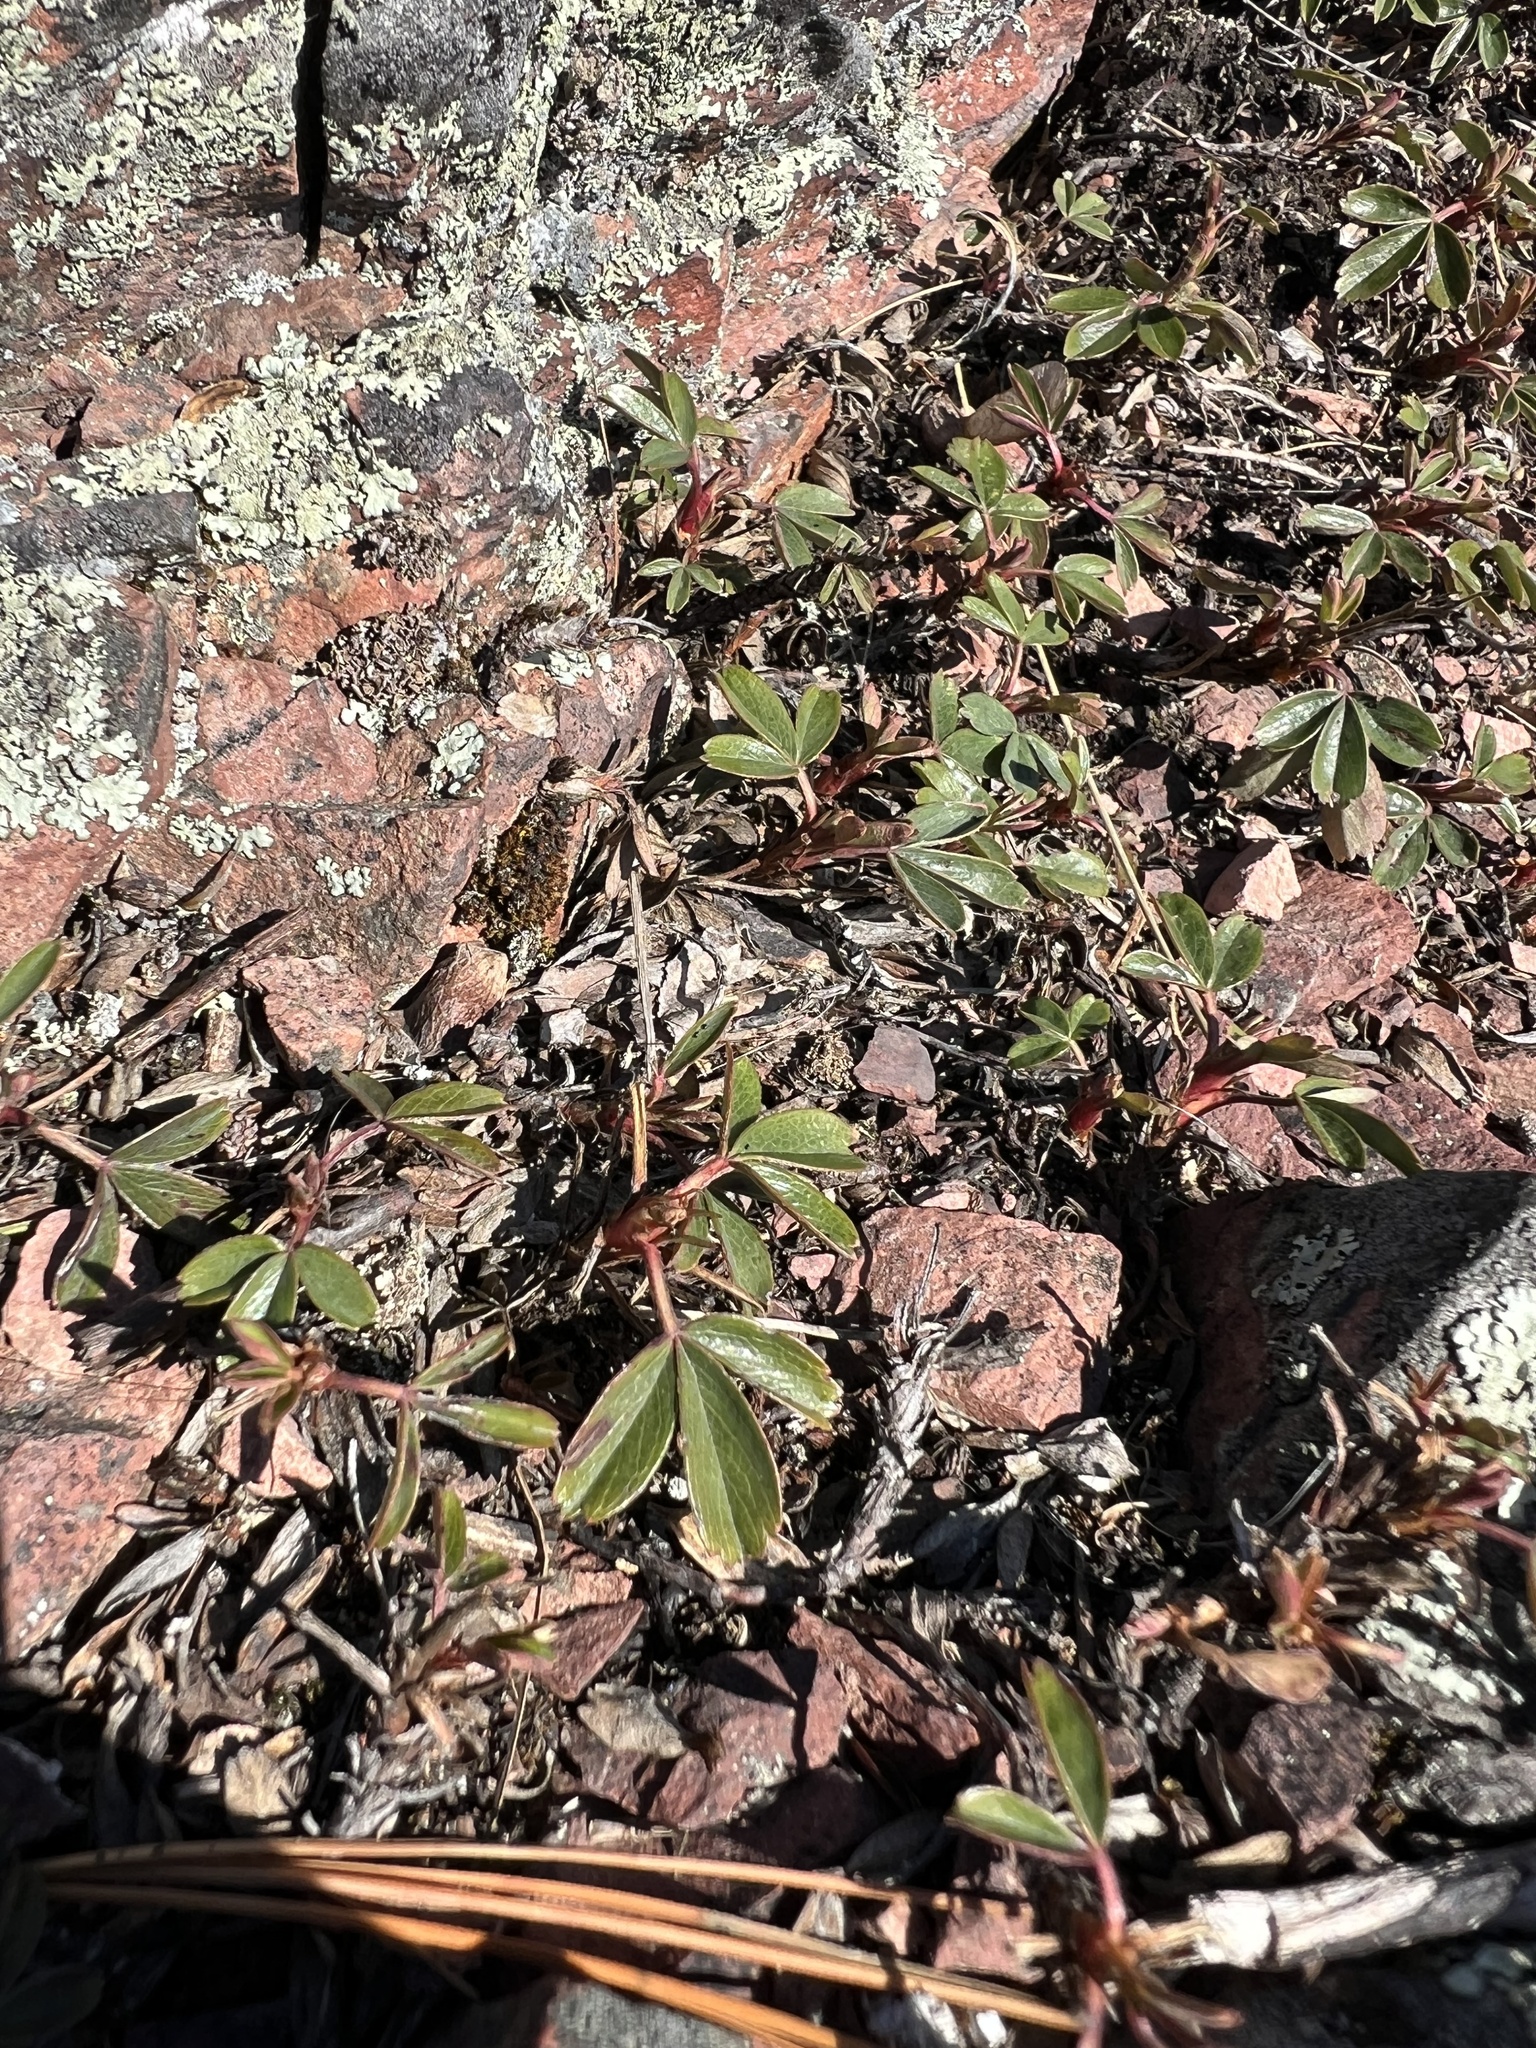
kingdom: Plantae
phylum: Tracheophyta
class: Magnoliopsida
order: Rosales
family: Rosaceae
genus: Sibbaldia
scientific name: Sibbaldia tridentata
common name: Three-toothed cinquefoil
